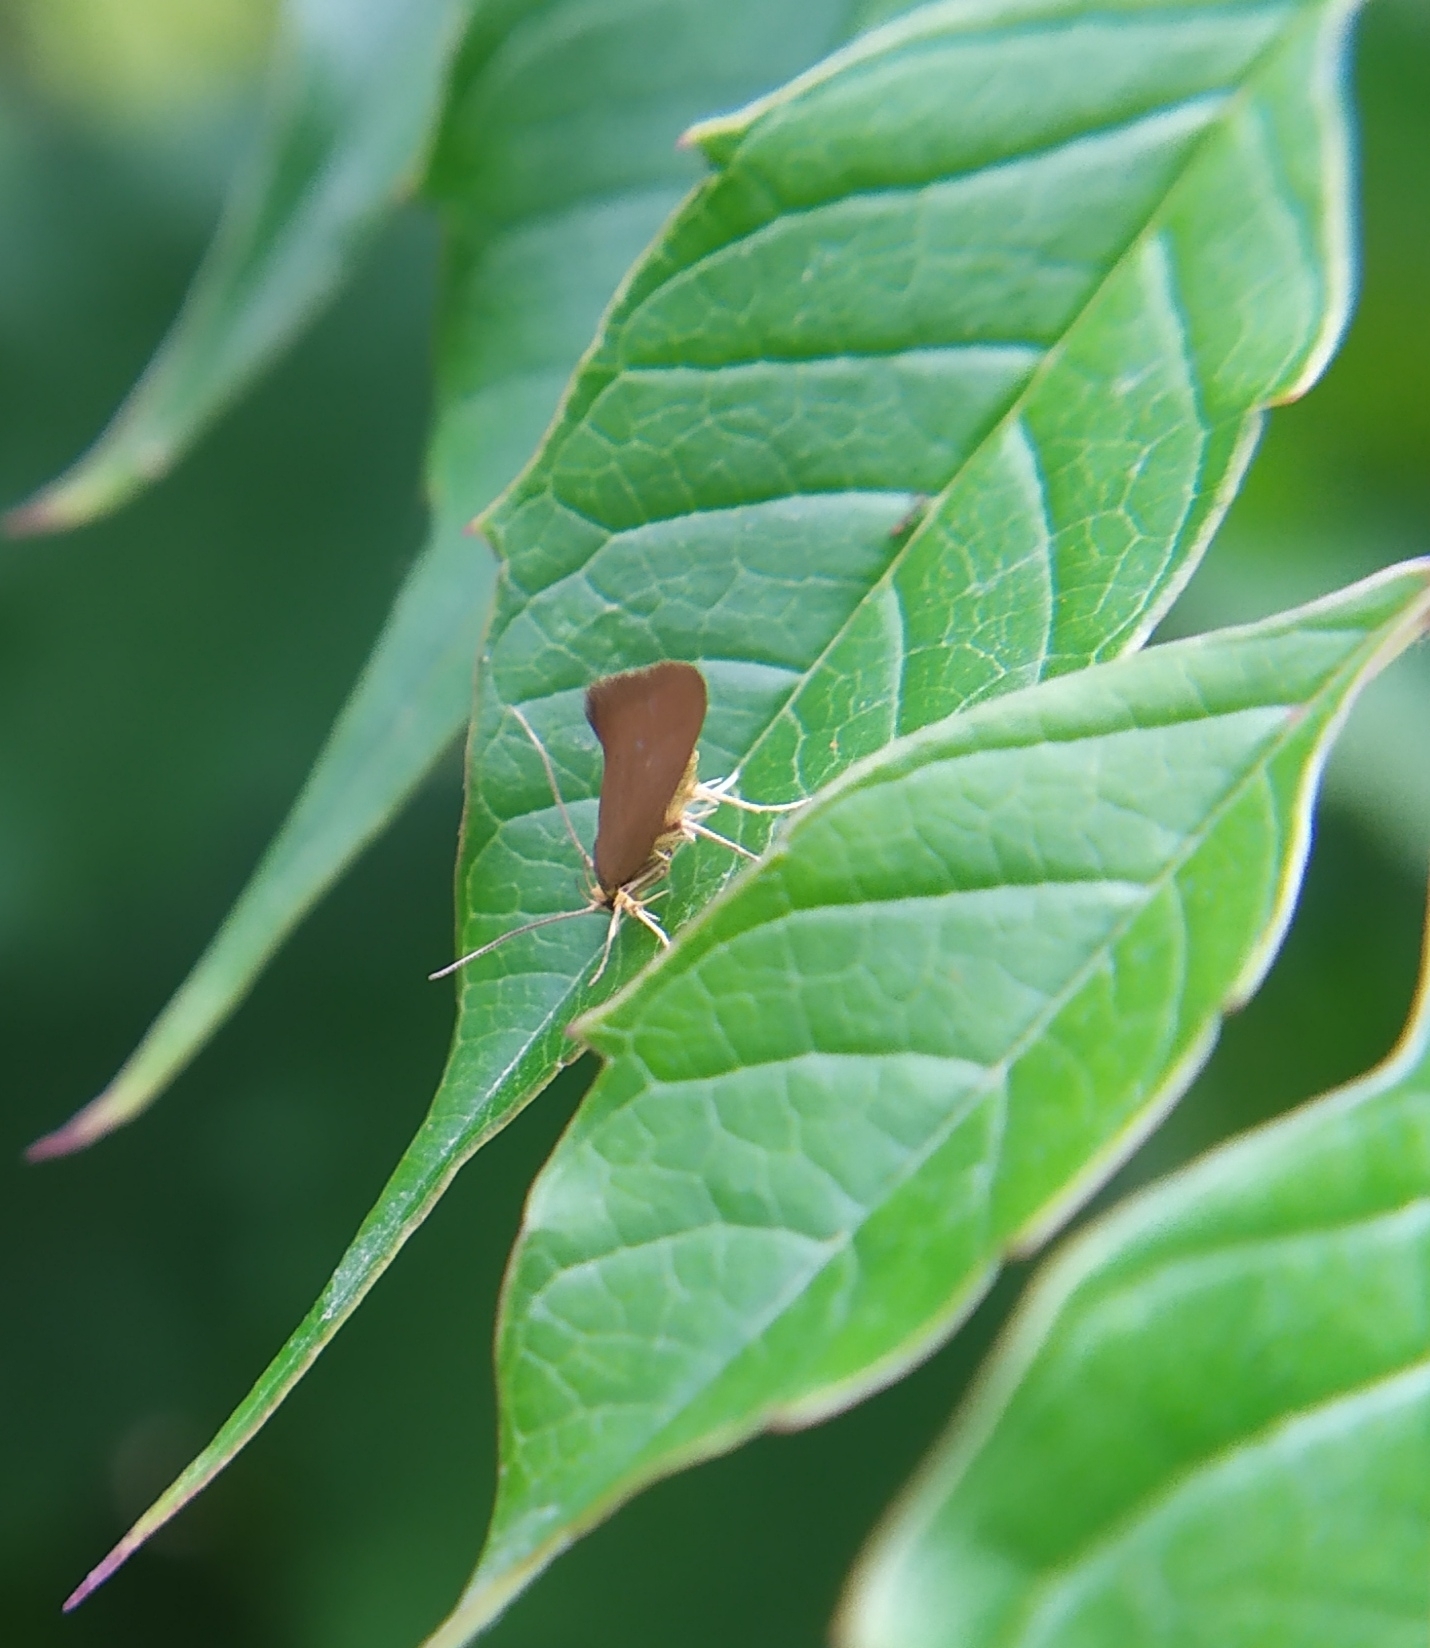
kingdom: Animalia
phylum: Arthropoda
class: Insecta
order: Lepidoptera
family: Oecophoridae
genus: Borkhausenia
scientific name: Borkhausenia Crassa unitella
